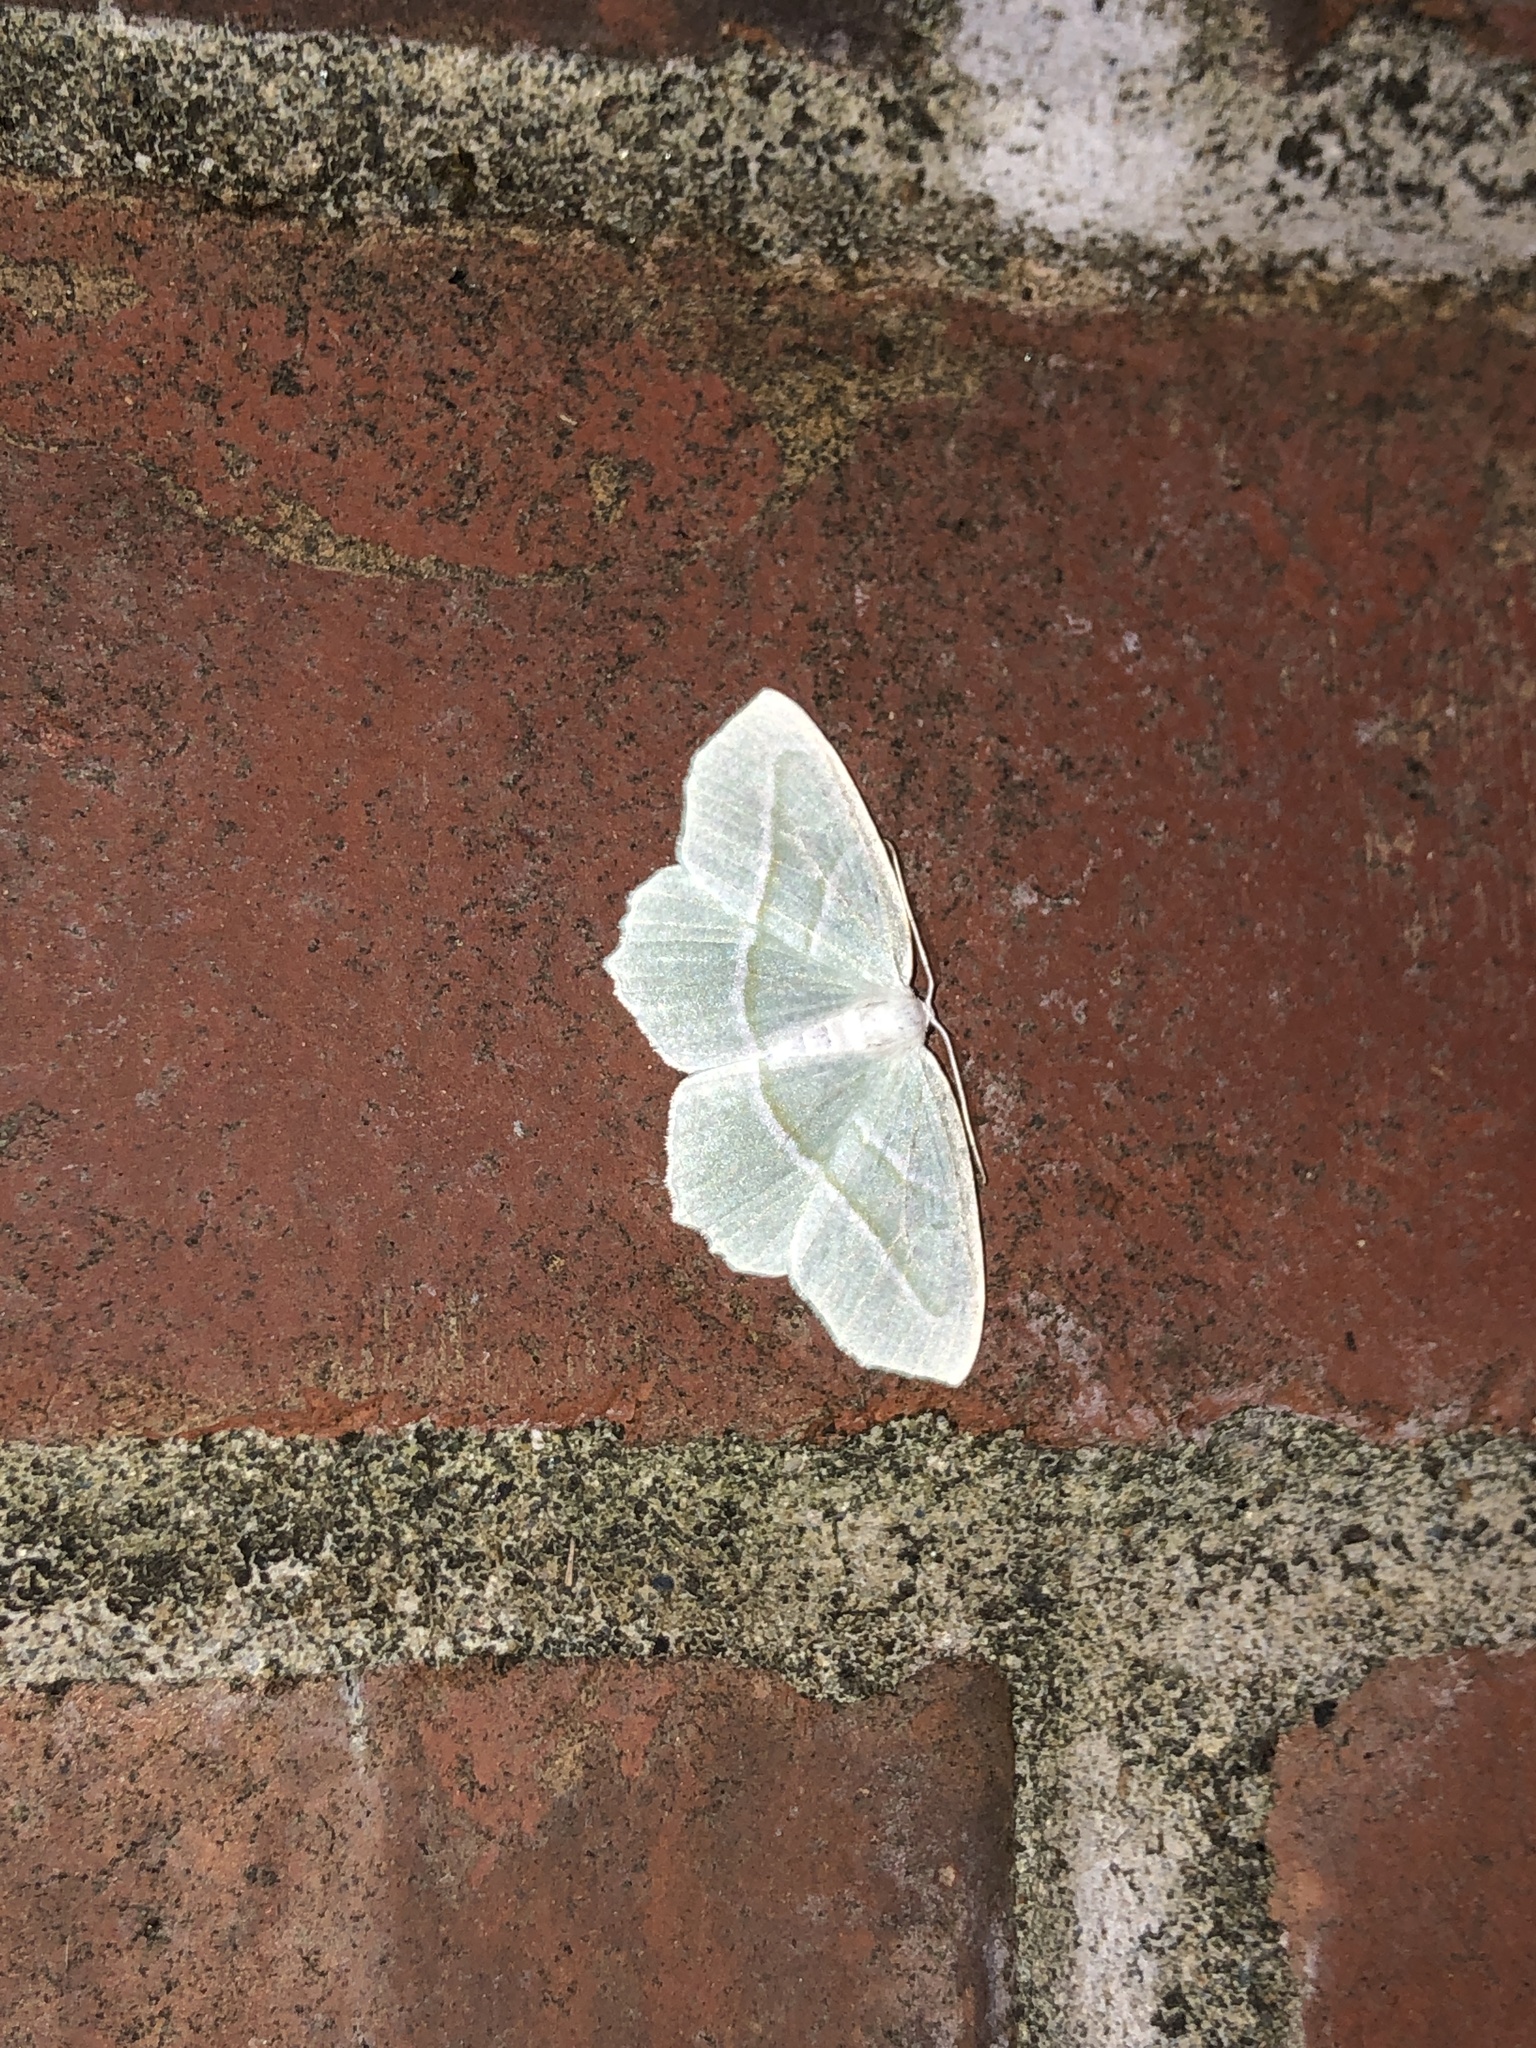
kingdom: Animalia
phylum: Arthropoda
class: Insecta
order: Lepidoptera
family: Geometridae
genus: Campaea
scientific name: Campaea perlata
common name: Fringed looper
